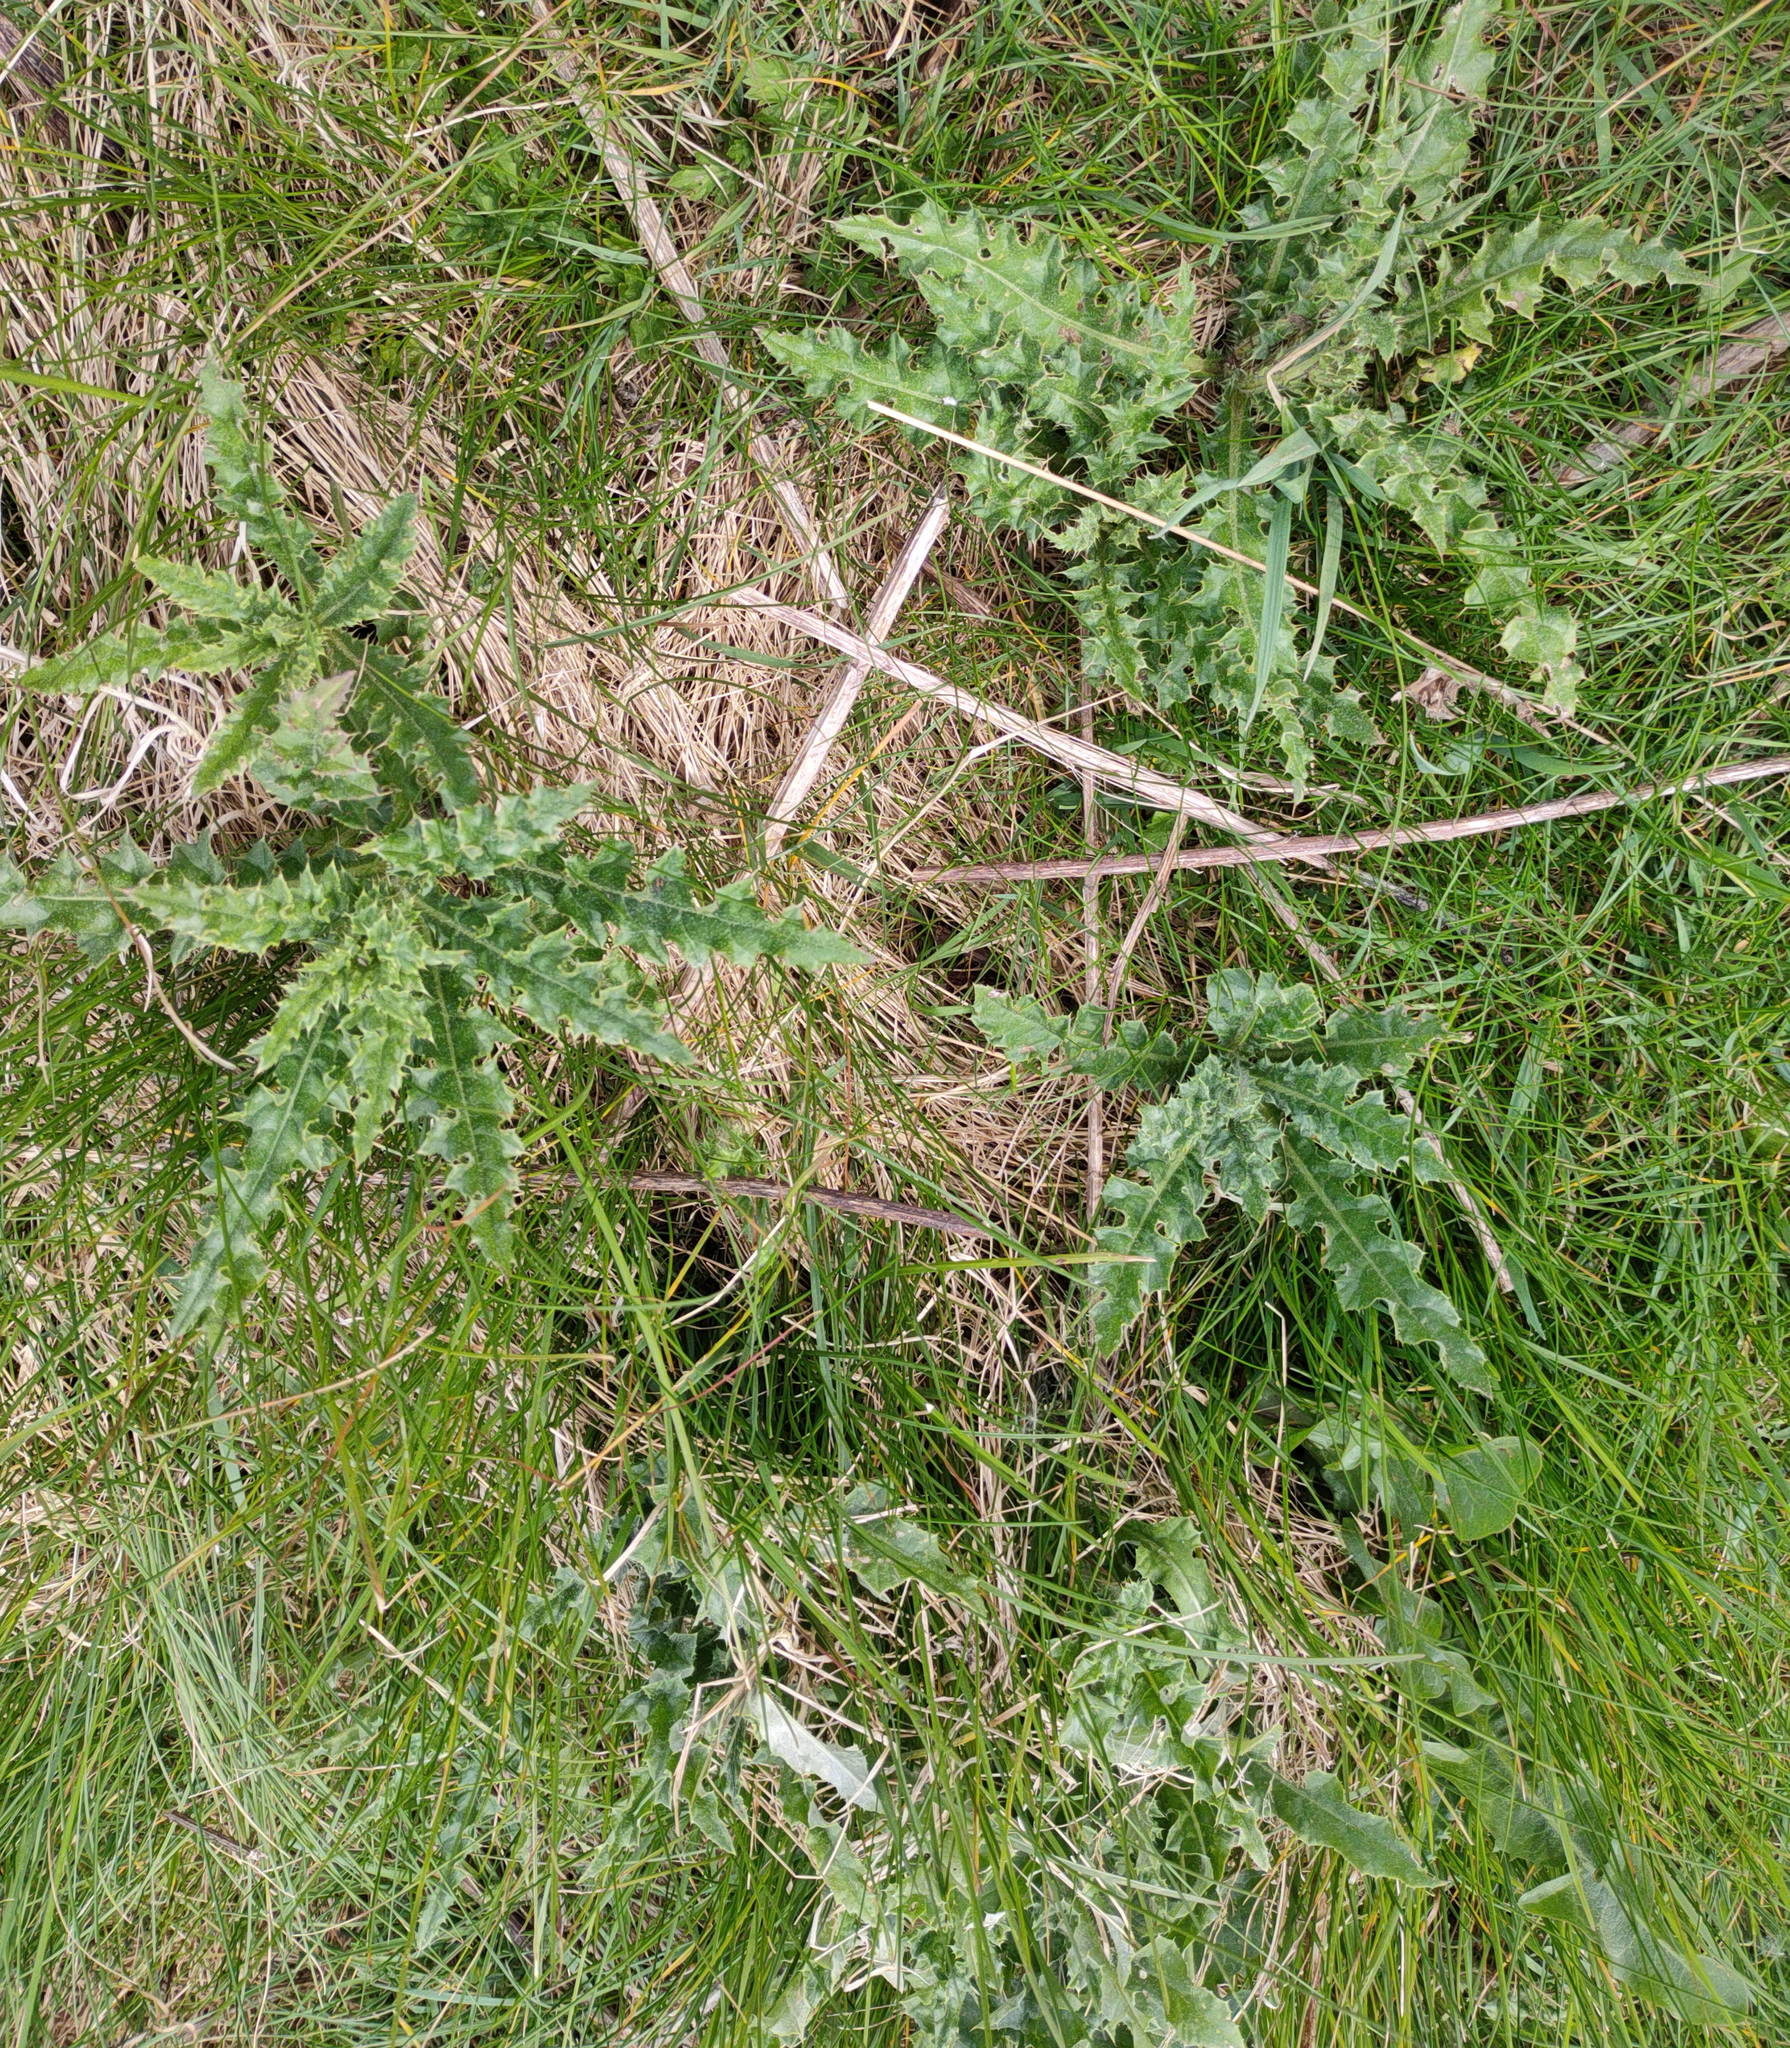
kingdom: Plantae
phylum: Tracheophyta
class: Magnoliopsida
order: Asterales
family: Asteraceae
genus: Cirsium
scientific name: Cirsium arvense
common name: Creeping thistle
